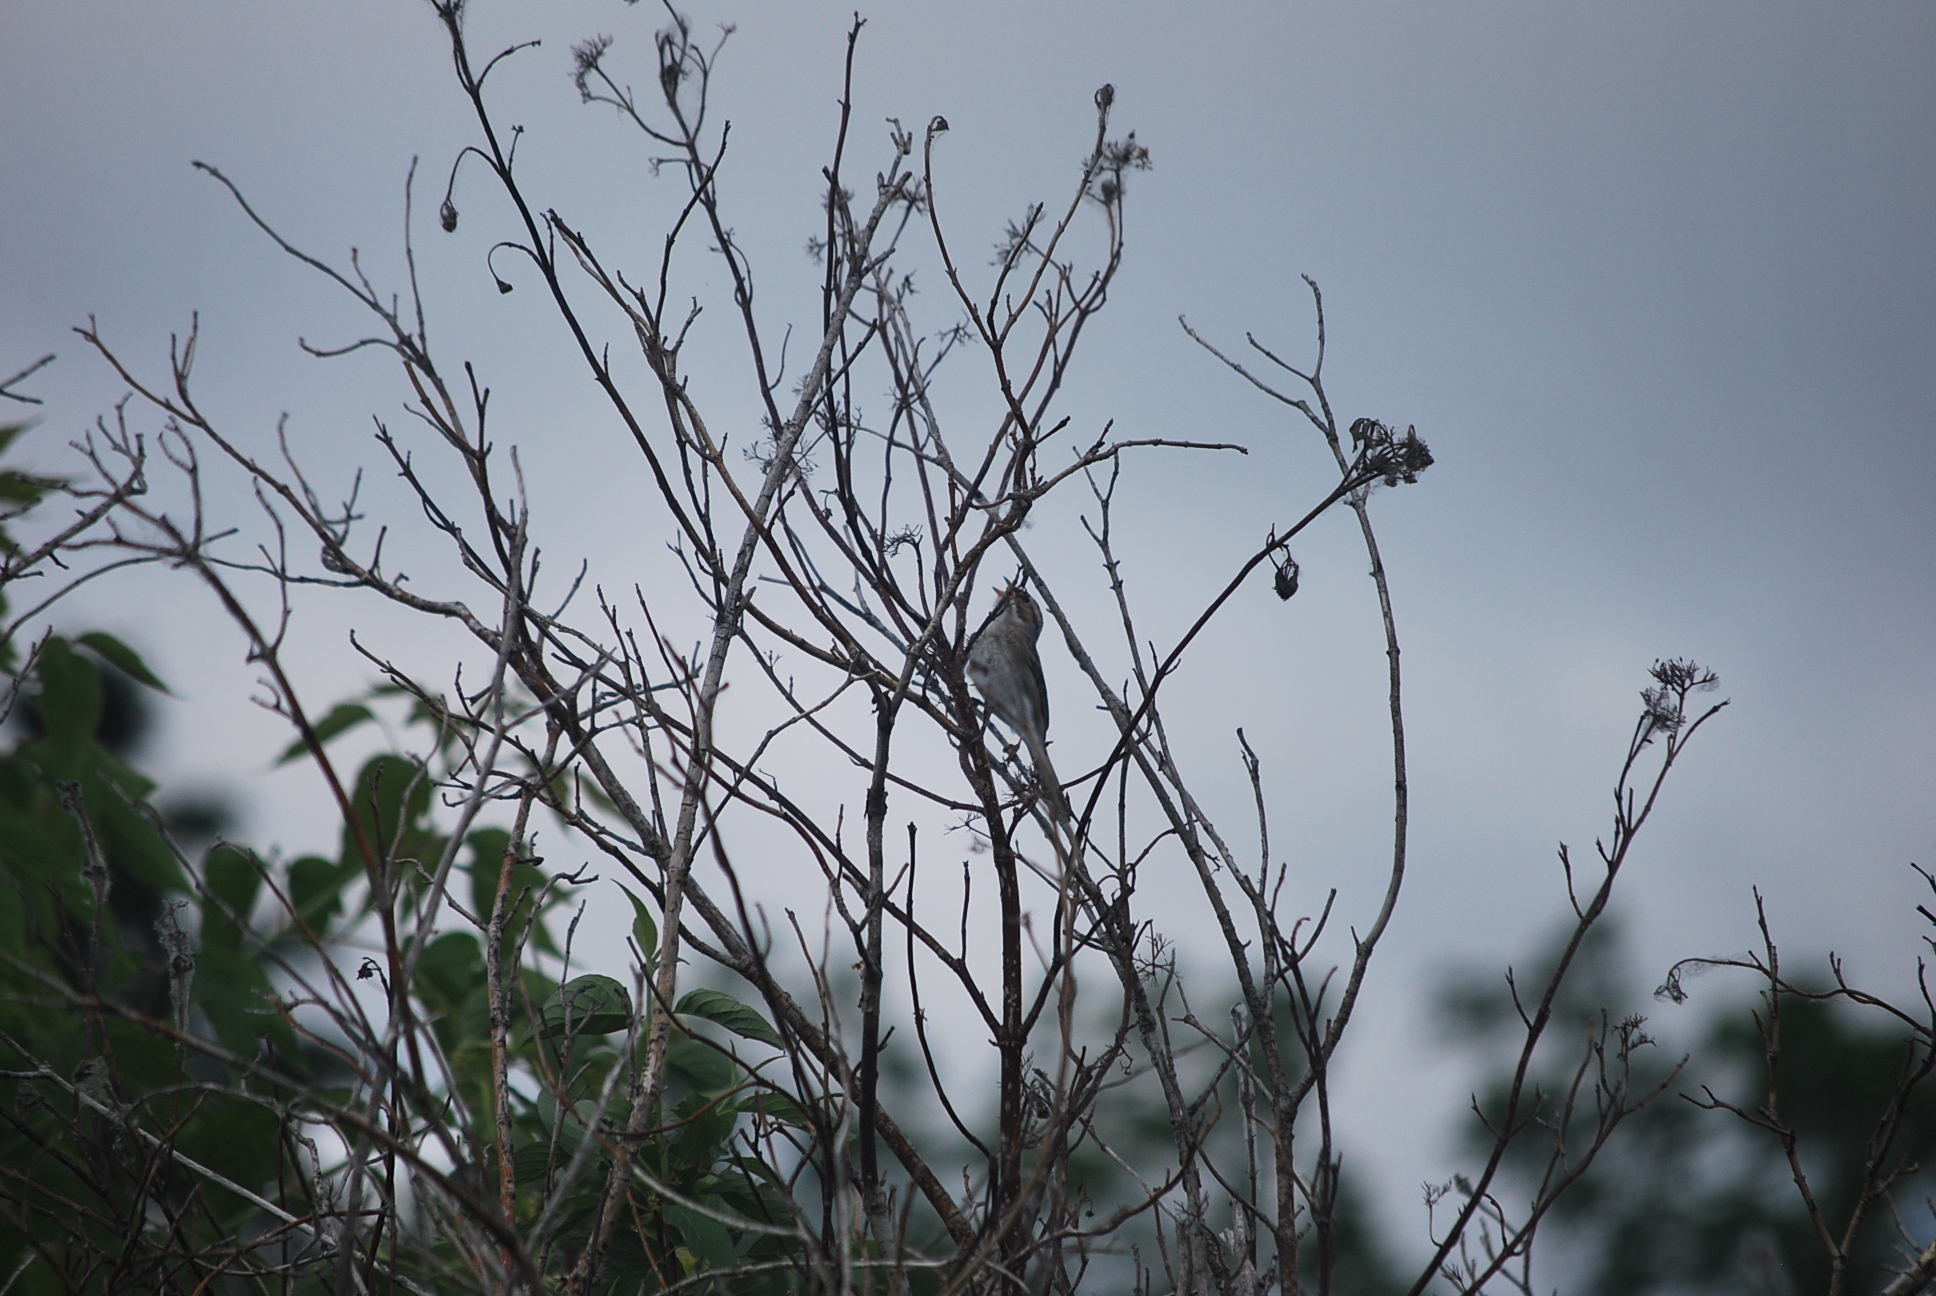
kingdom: Animalia
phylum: Chordata
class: Aves
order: Passeriformes
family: Passerellidae
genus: Spizella
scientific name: Spizella pallida
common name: Clay-colored sparrow
